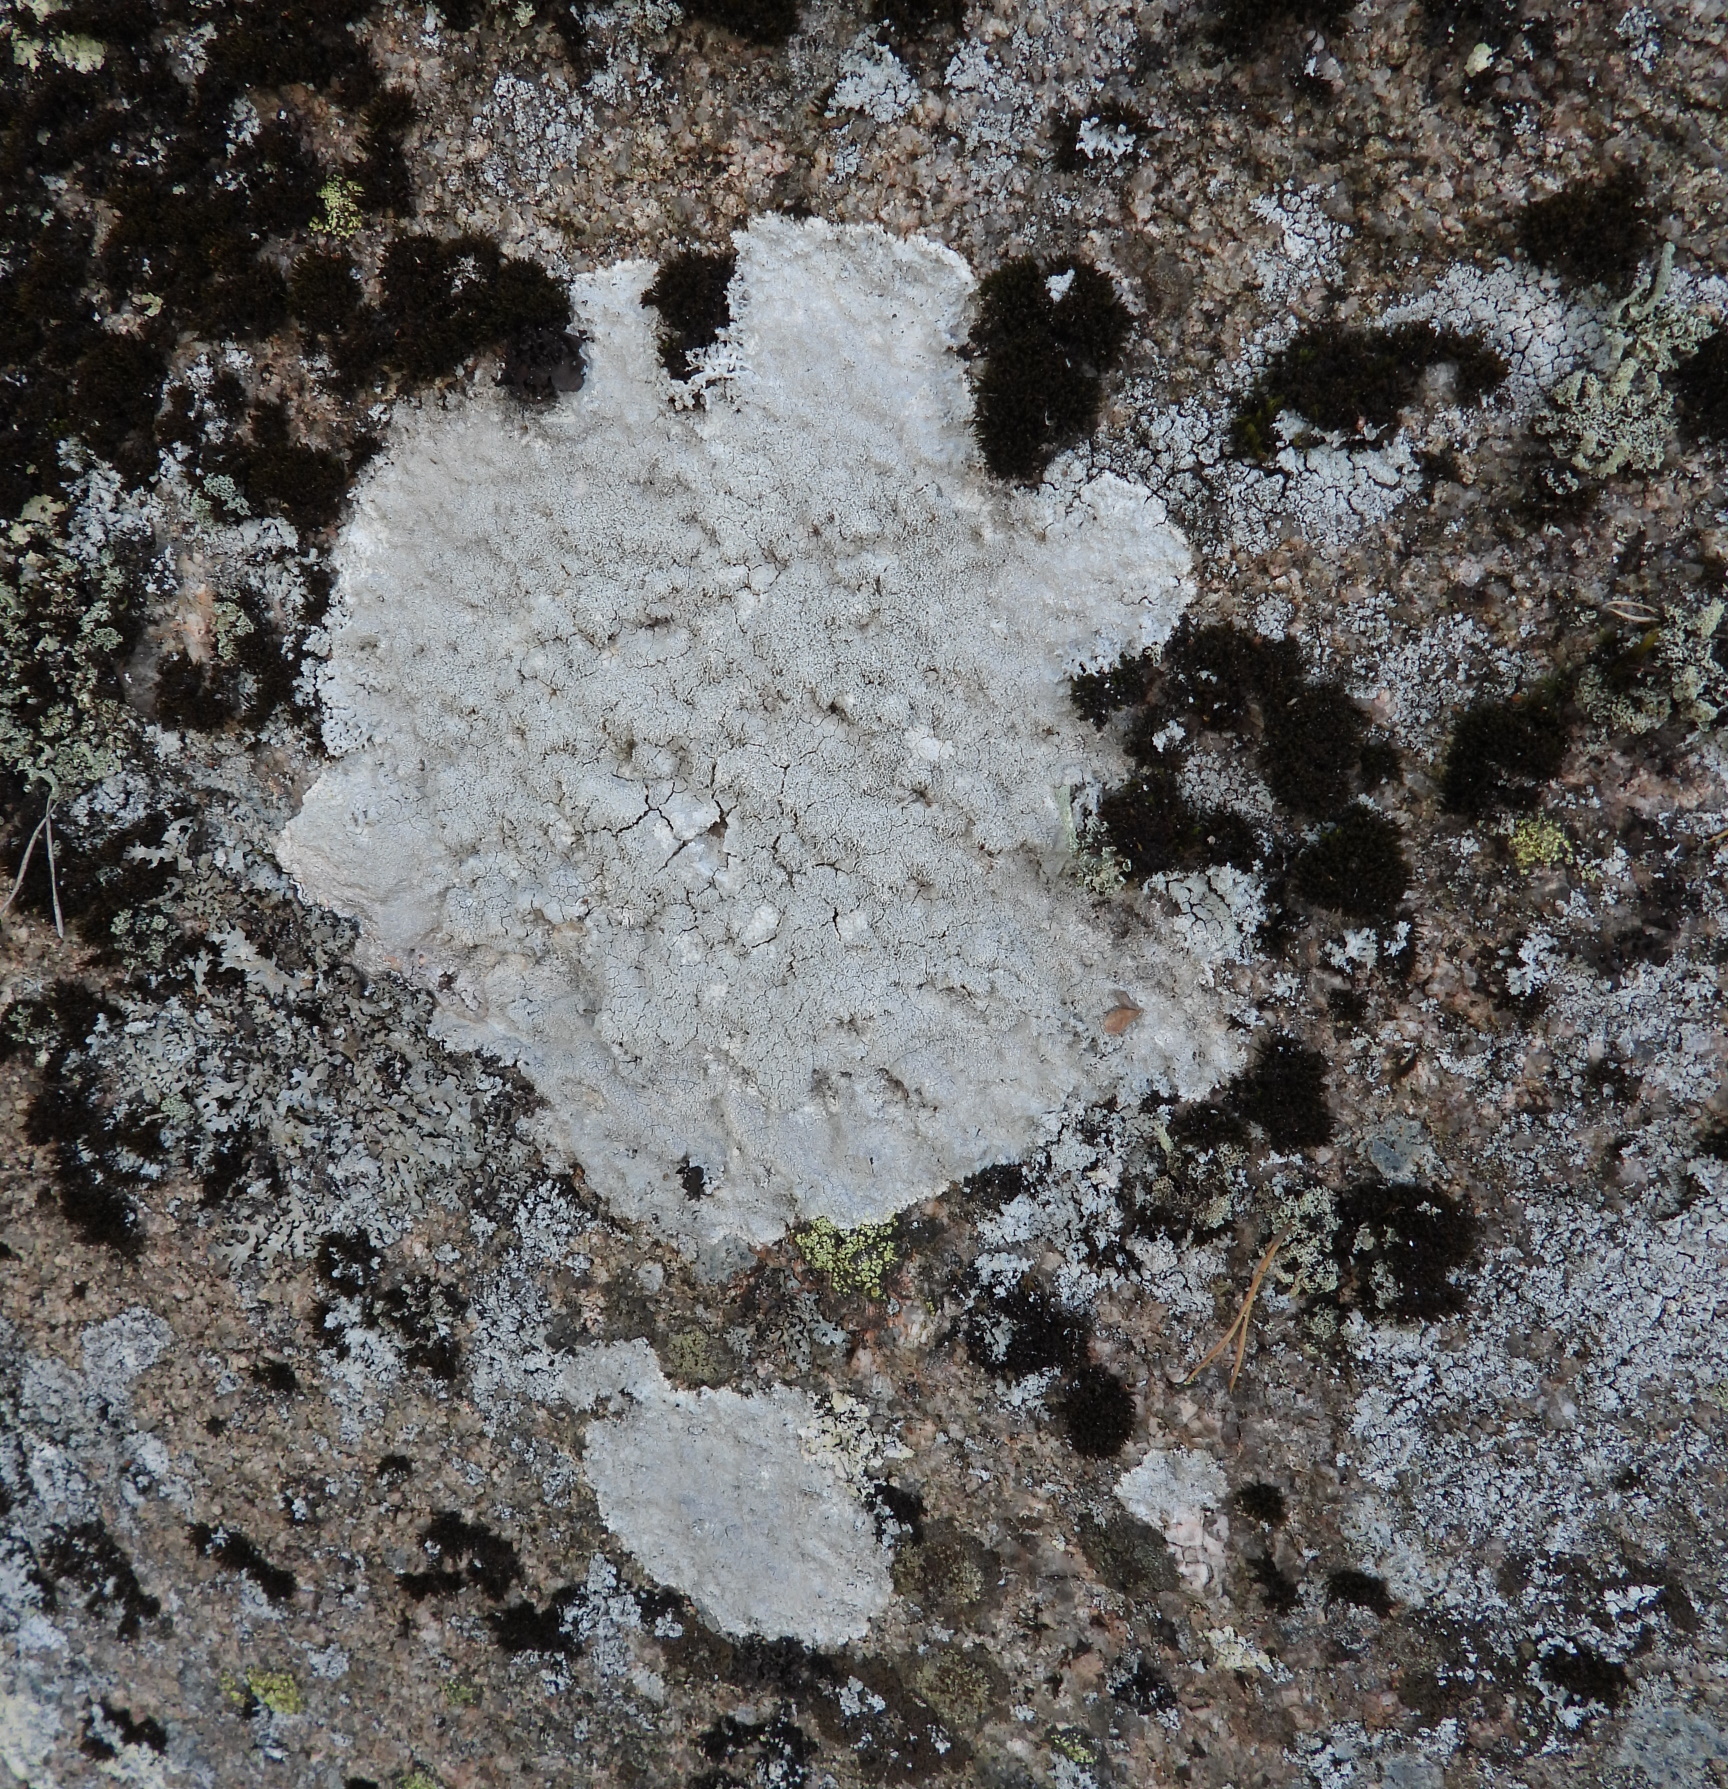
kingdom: Fungi
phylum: Ascomycota
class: Lecanoromycetes
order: Pertusariales
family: Pertusariaceae
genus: Lepra
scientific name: Lepra corallina
